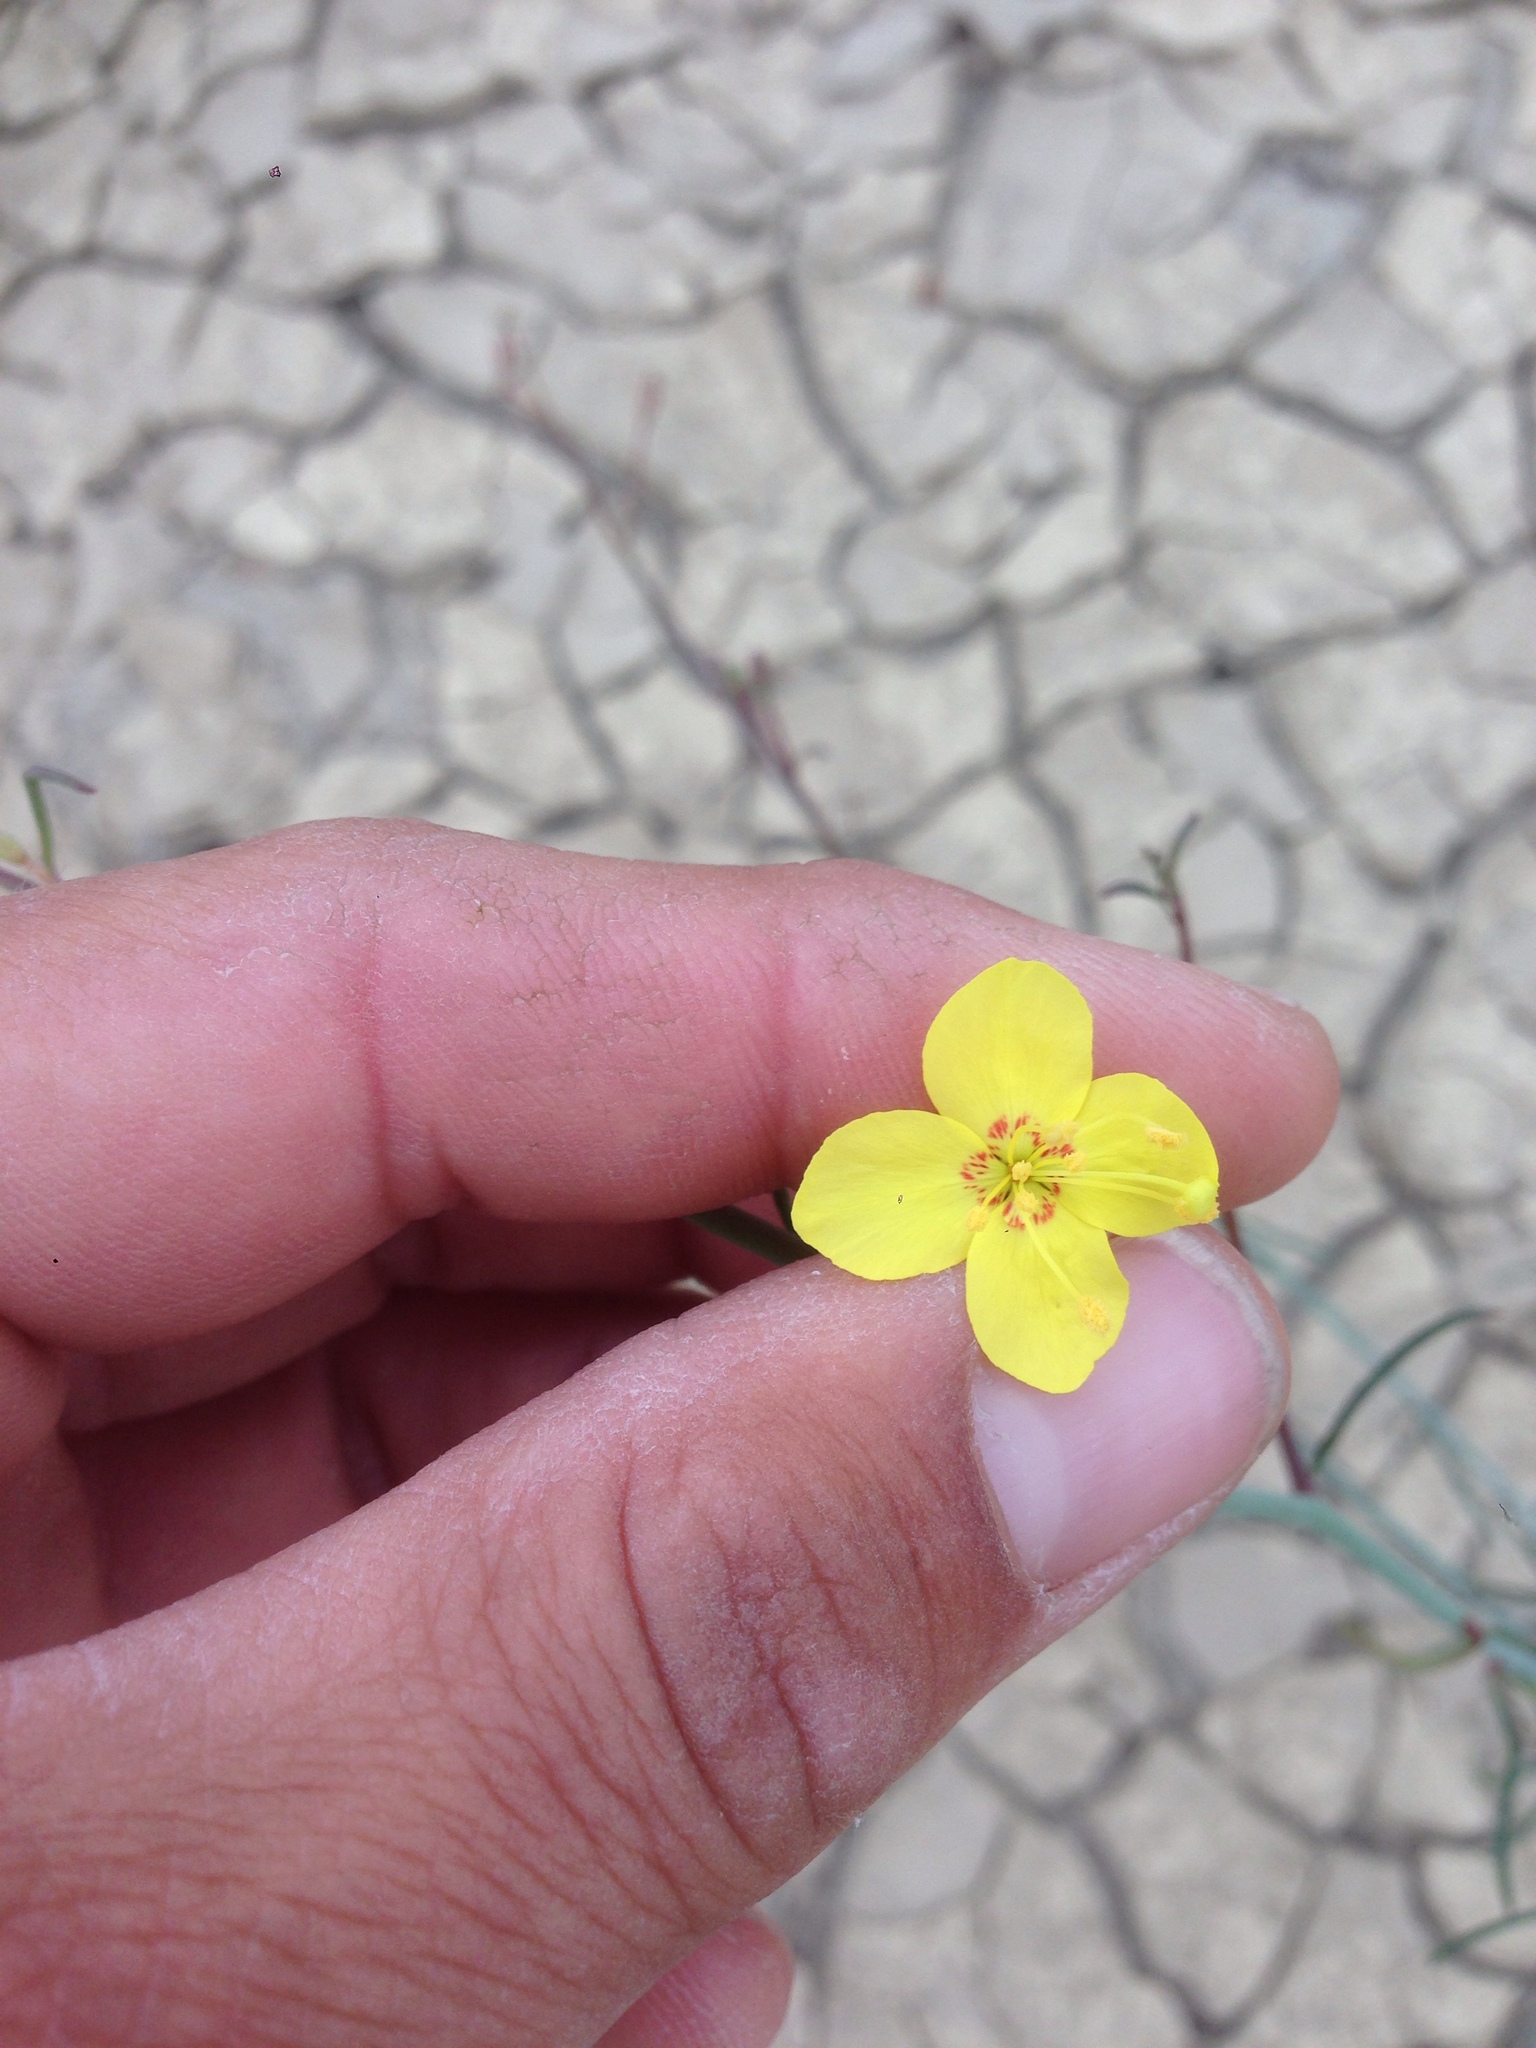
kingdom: Plantae
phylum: Tracheophyta
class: Magnoliopsida
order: Myrtales
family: Onagraceae
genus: Eulobus
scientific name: Eulobus californicus
